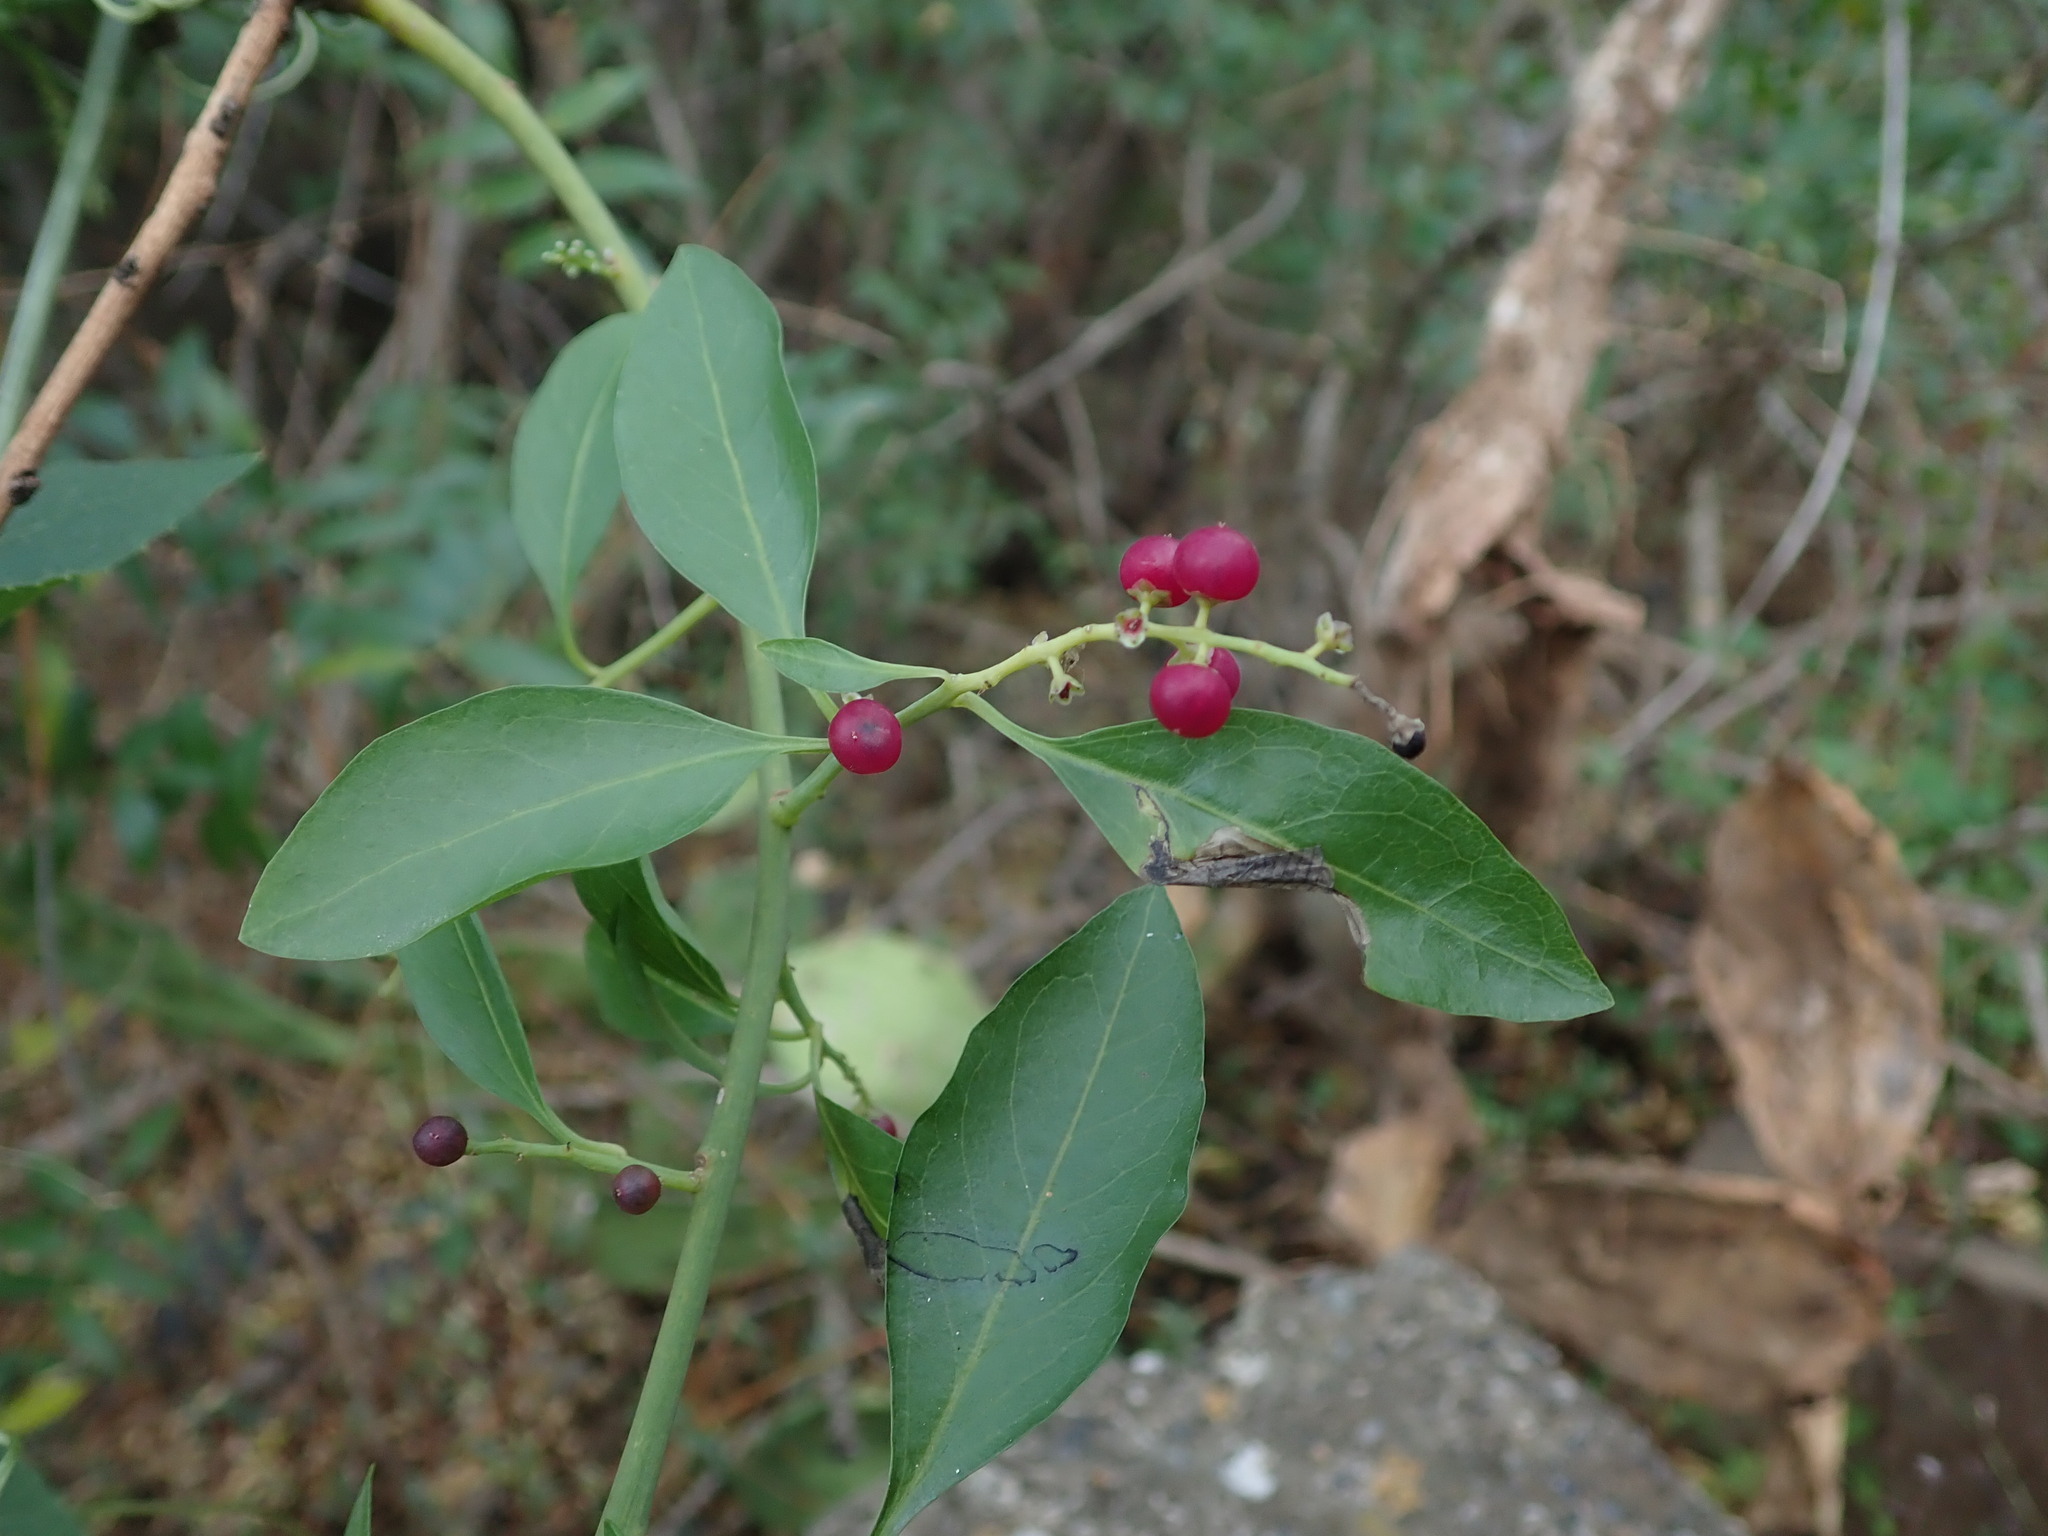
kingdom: Plantae
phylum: Tracheophyta
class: Magnoliopsida
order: Caryophyllales
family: Amaranthaceae
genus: Bosea
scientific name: Bosea yervamora
